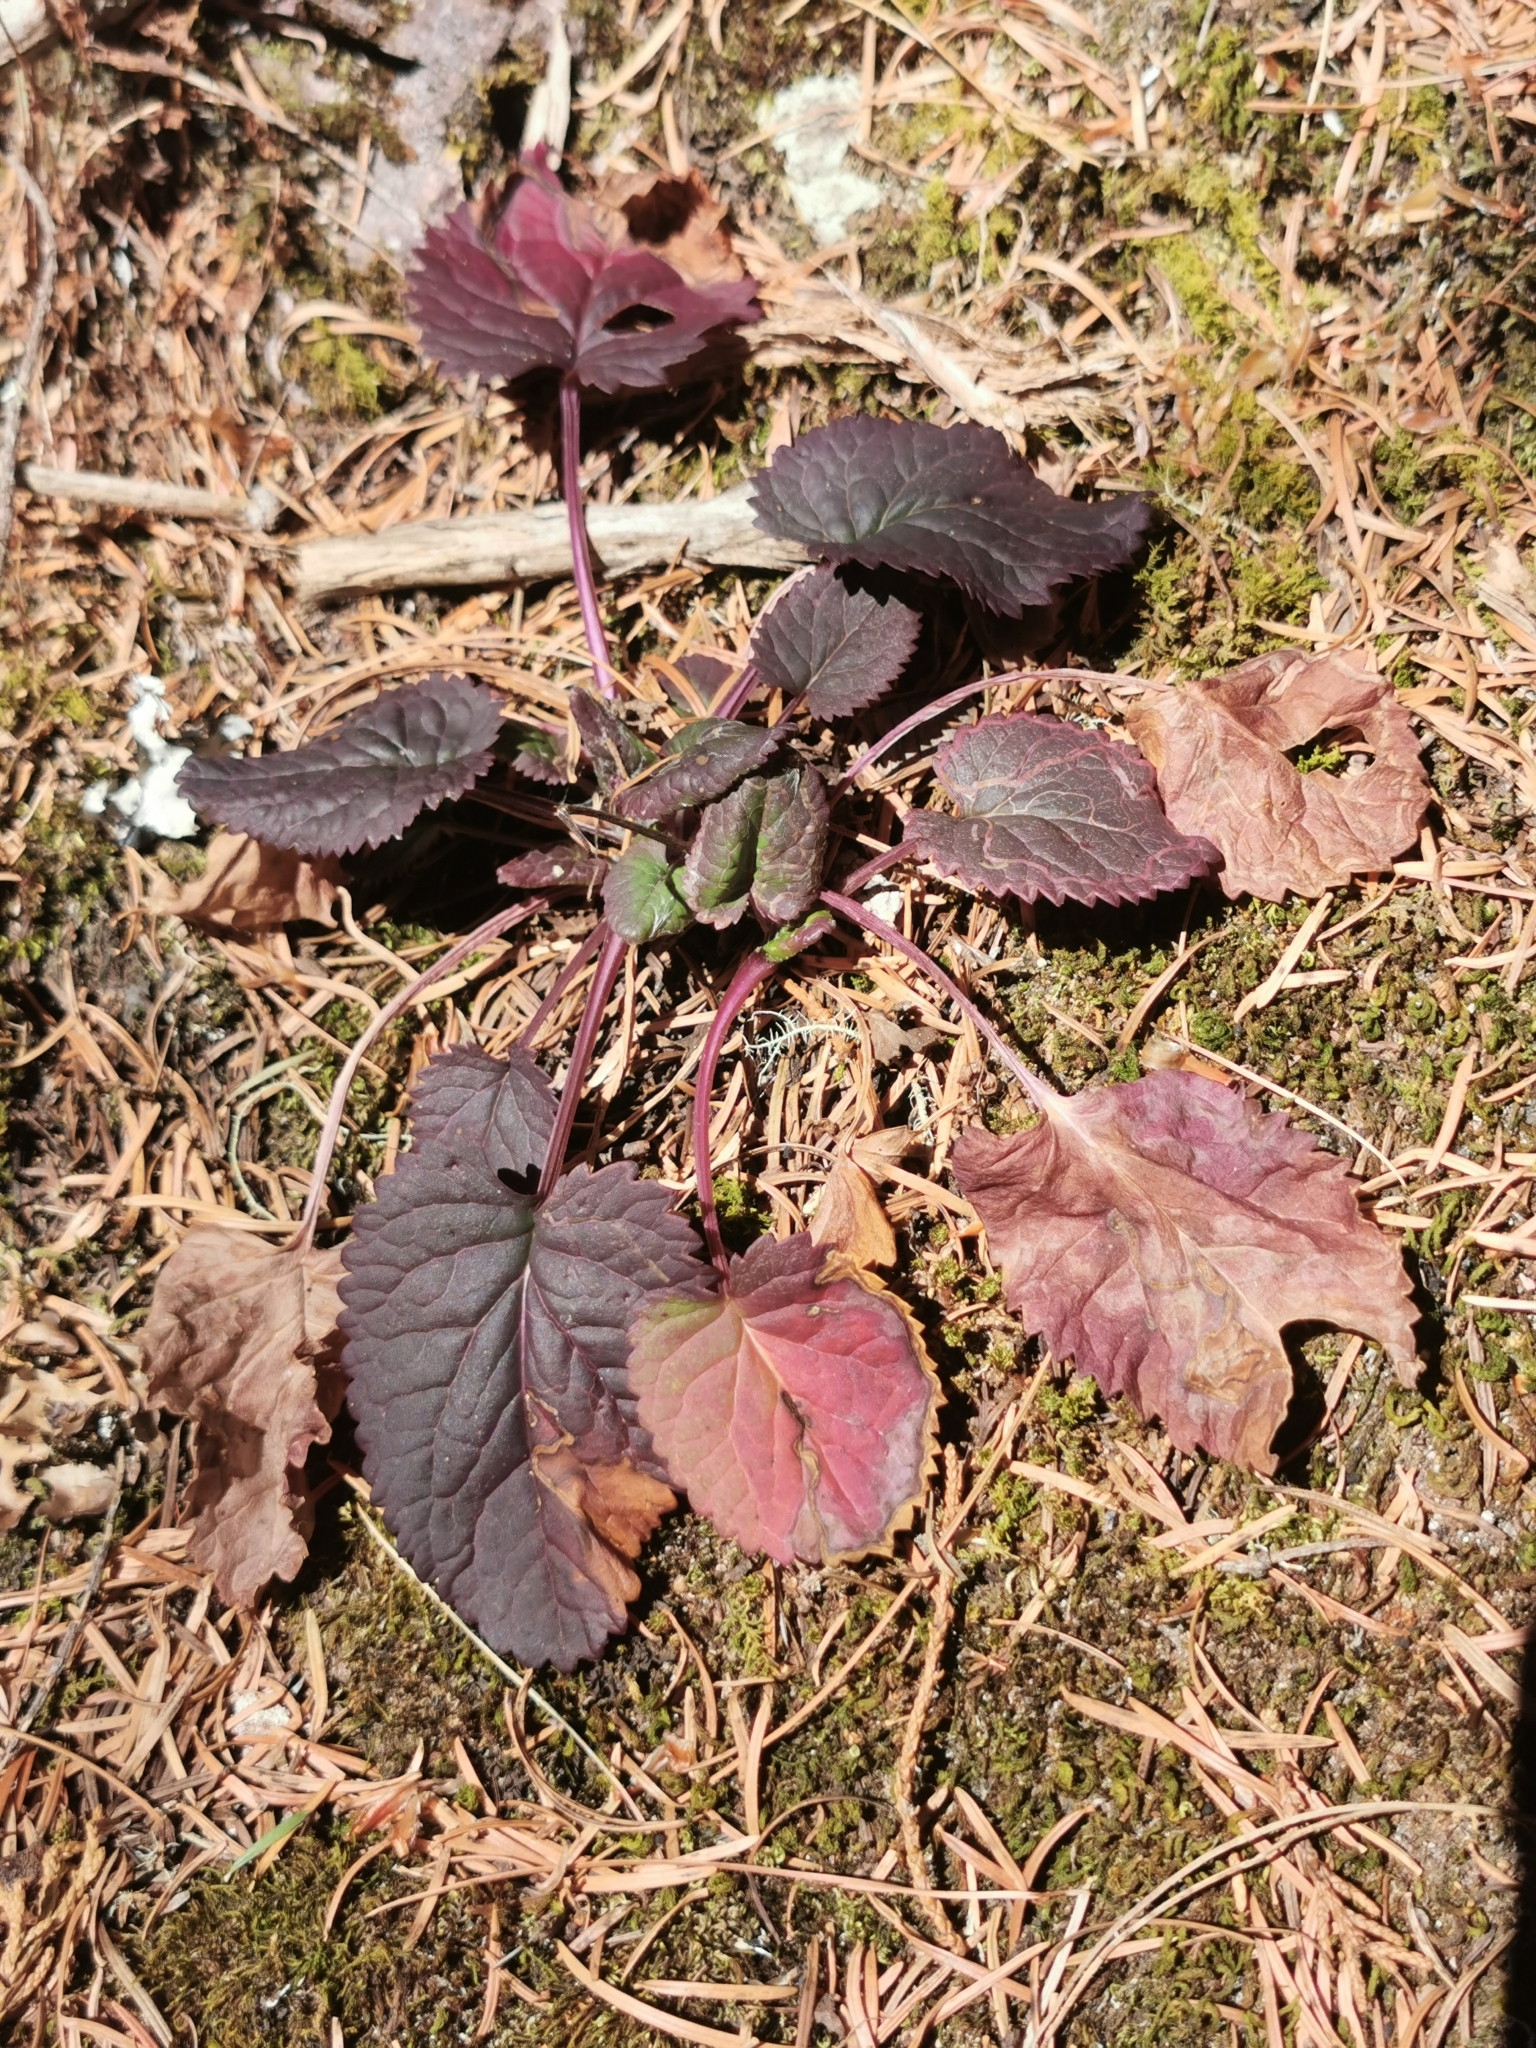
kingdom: Plantae
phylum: Tracheophyta
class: Magnoliopsida
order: Asterales
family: Asteraceae
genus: Packera
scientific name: Packera quebradensis
